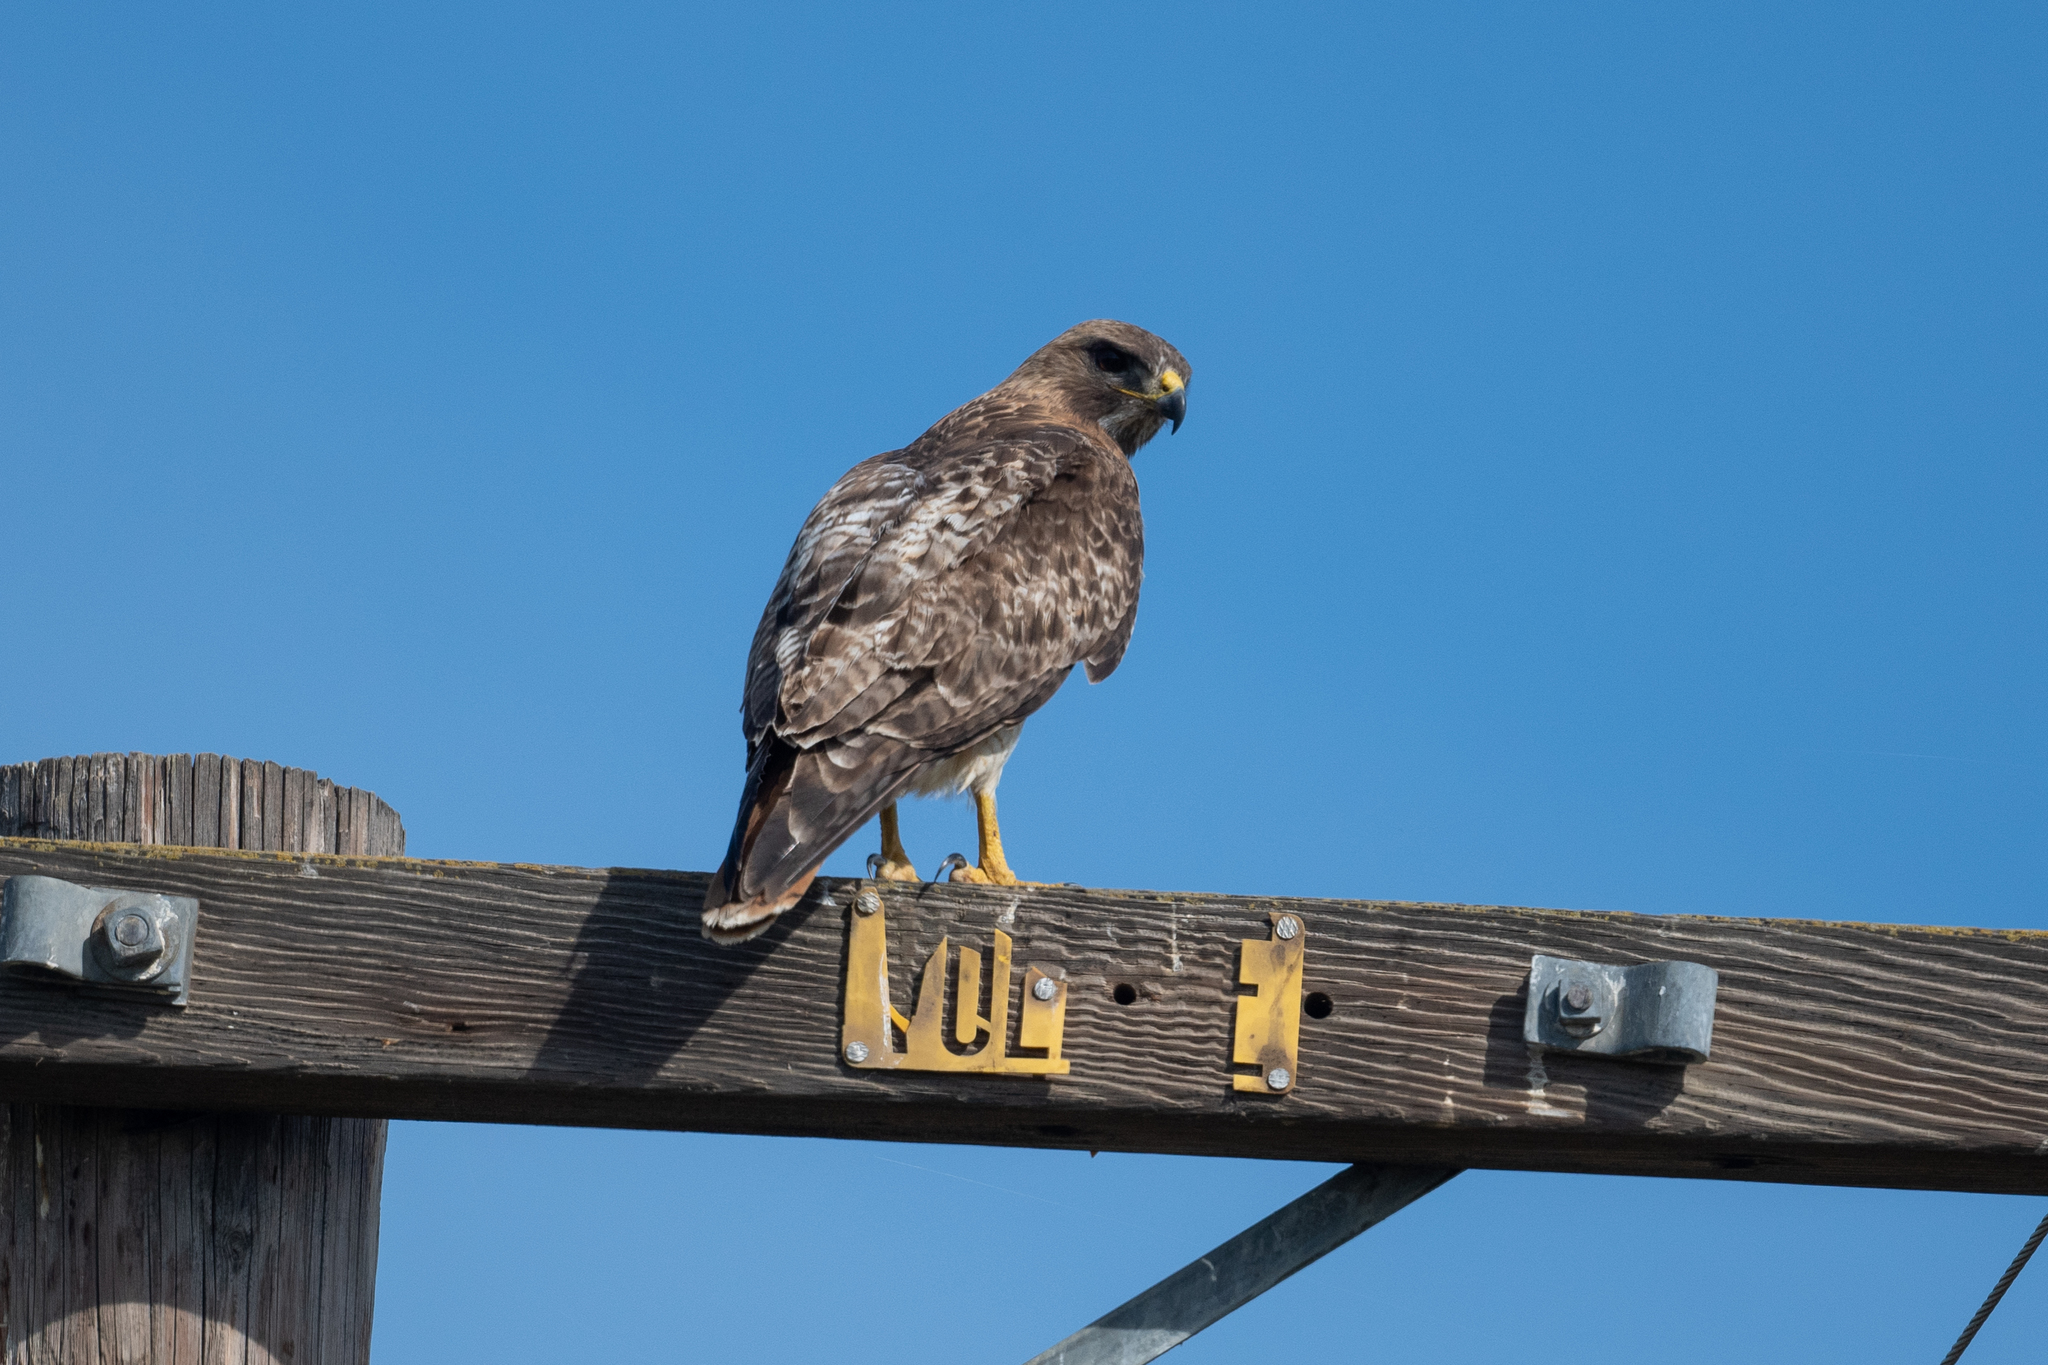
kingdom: Animalia
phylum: Chordata
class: Aves
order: Accipitriformes
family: Accipitridae
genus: Buteo
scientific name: Buteo jamaicensis
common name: Red-tailed hawk
